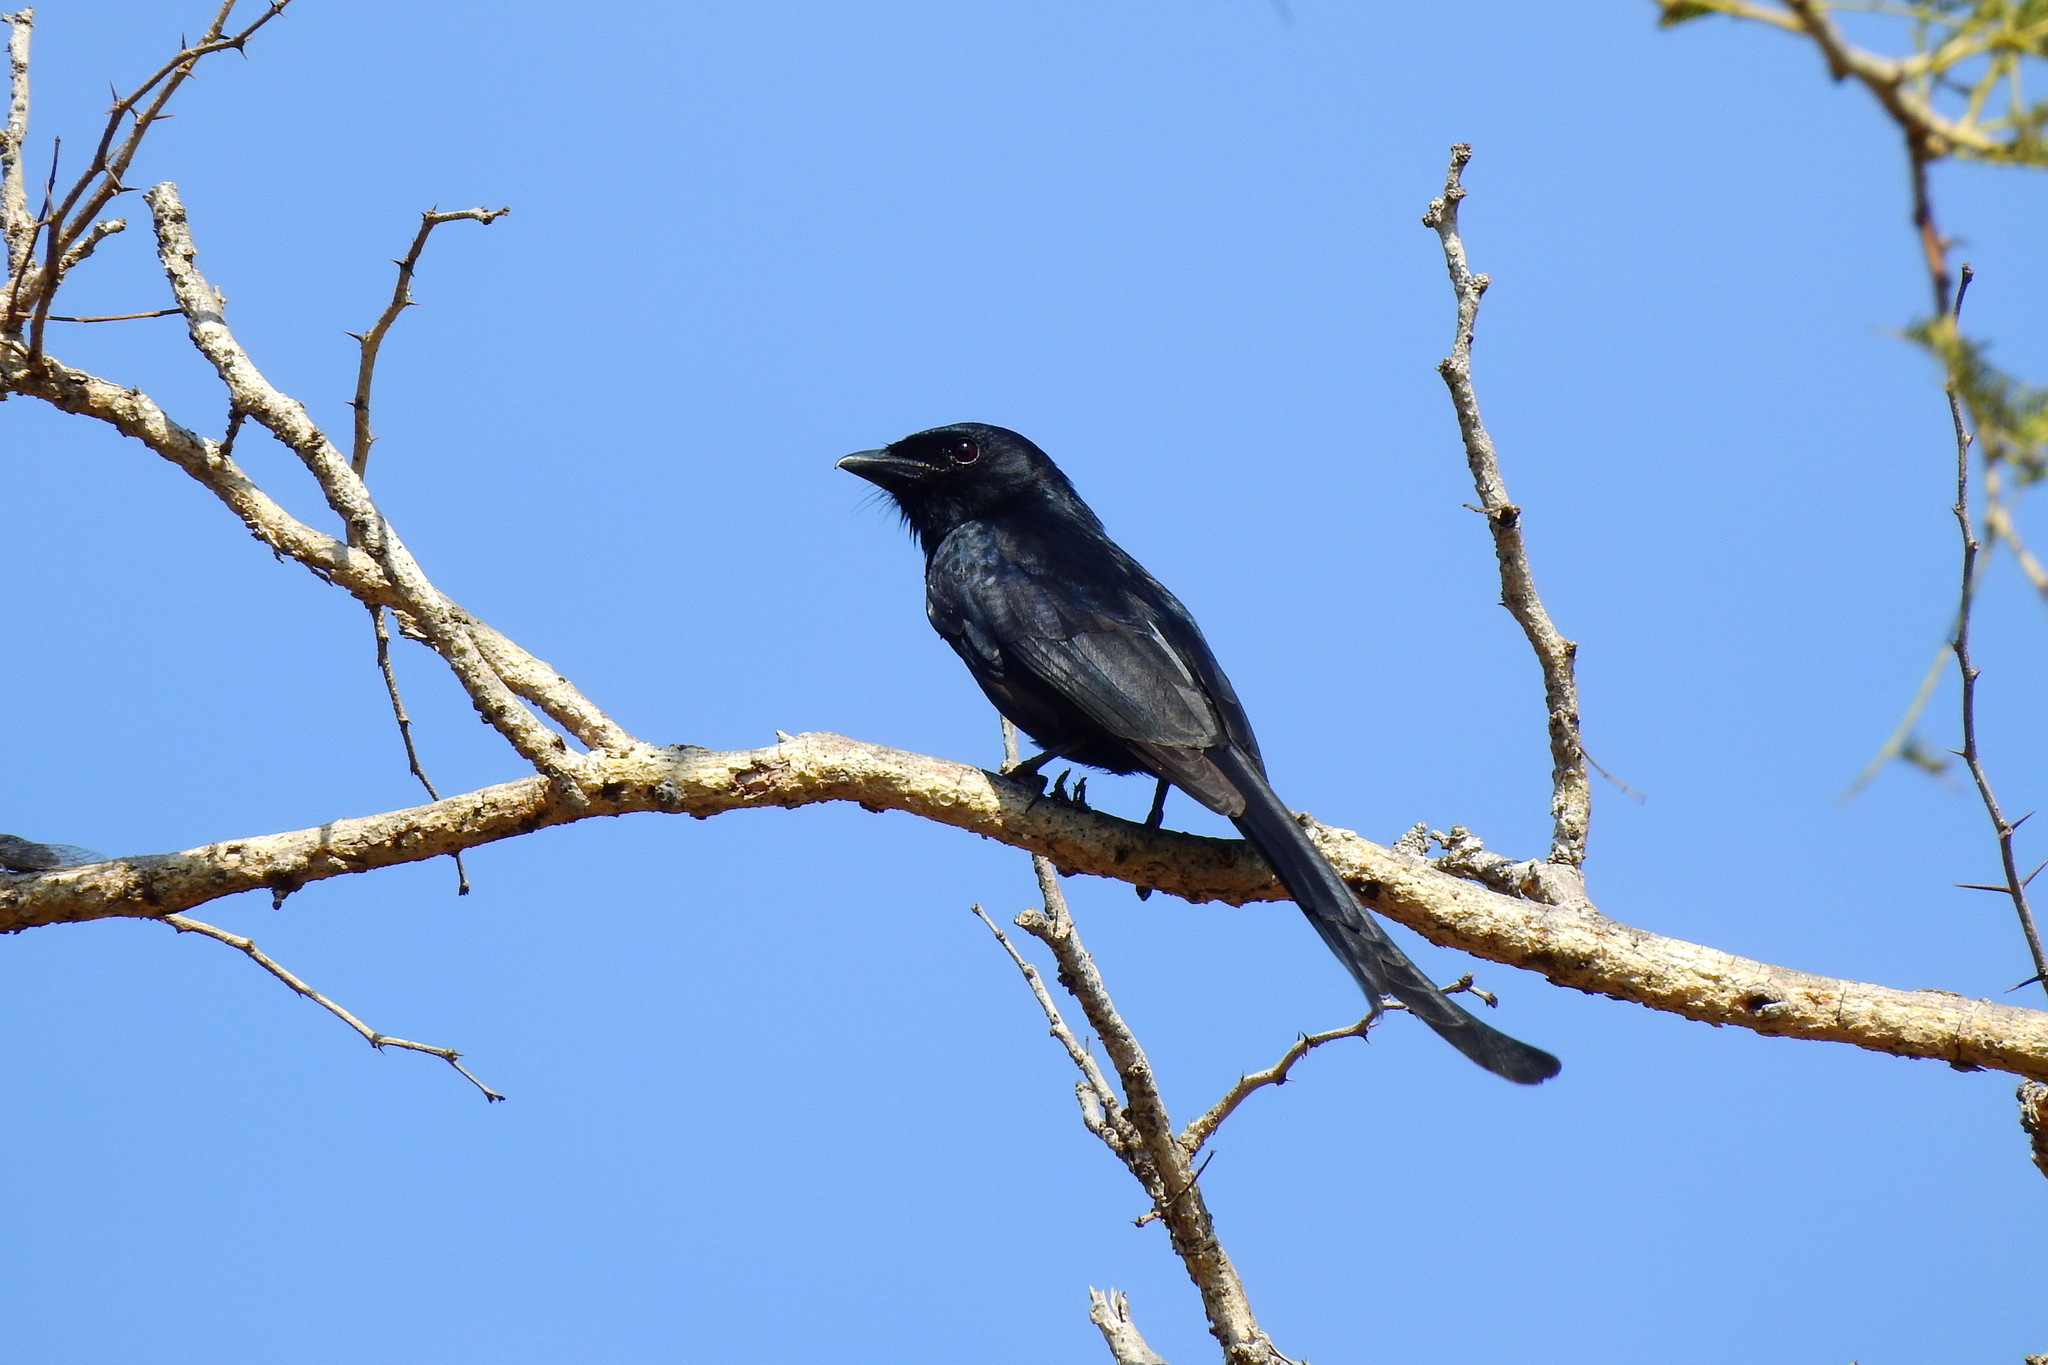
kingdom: Animalia
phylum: Chordata
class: Aves
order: Passeriformes
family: Dicruridae
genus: Dicrurus
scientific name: Dicrurus macrocercus
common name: Black drongo
